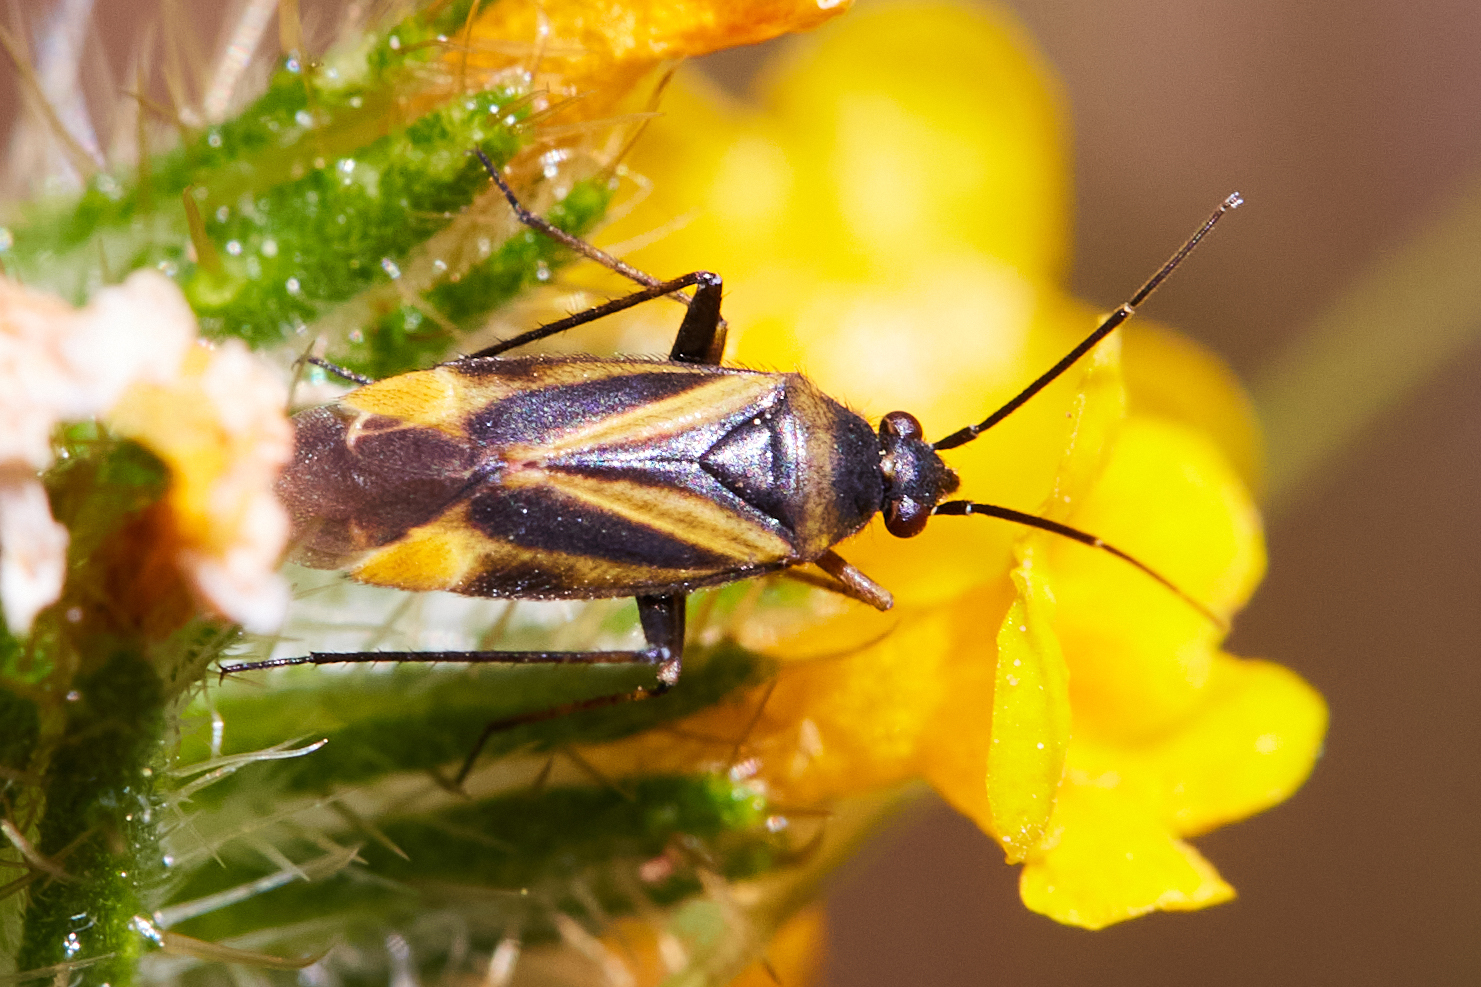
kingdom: Animalia
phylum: Arthropoda
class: Insecta
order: Hemiptera
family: Miridae
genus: Plagiognathus
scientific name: Plagiognathus moerens
